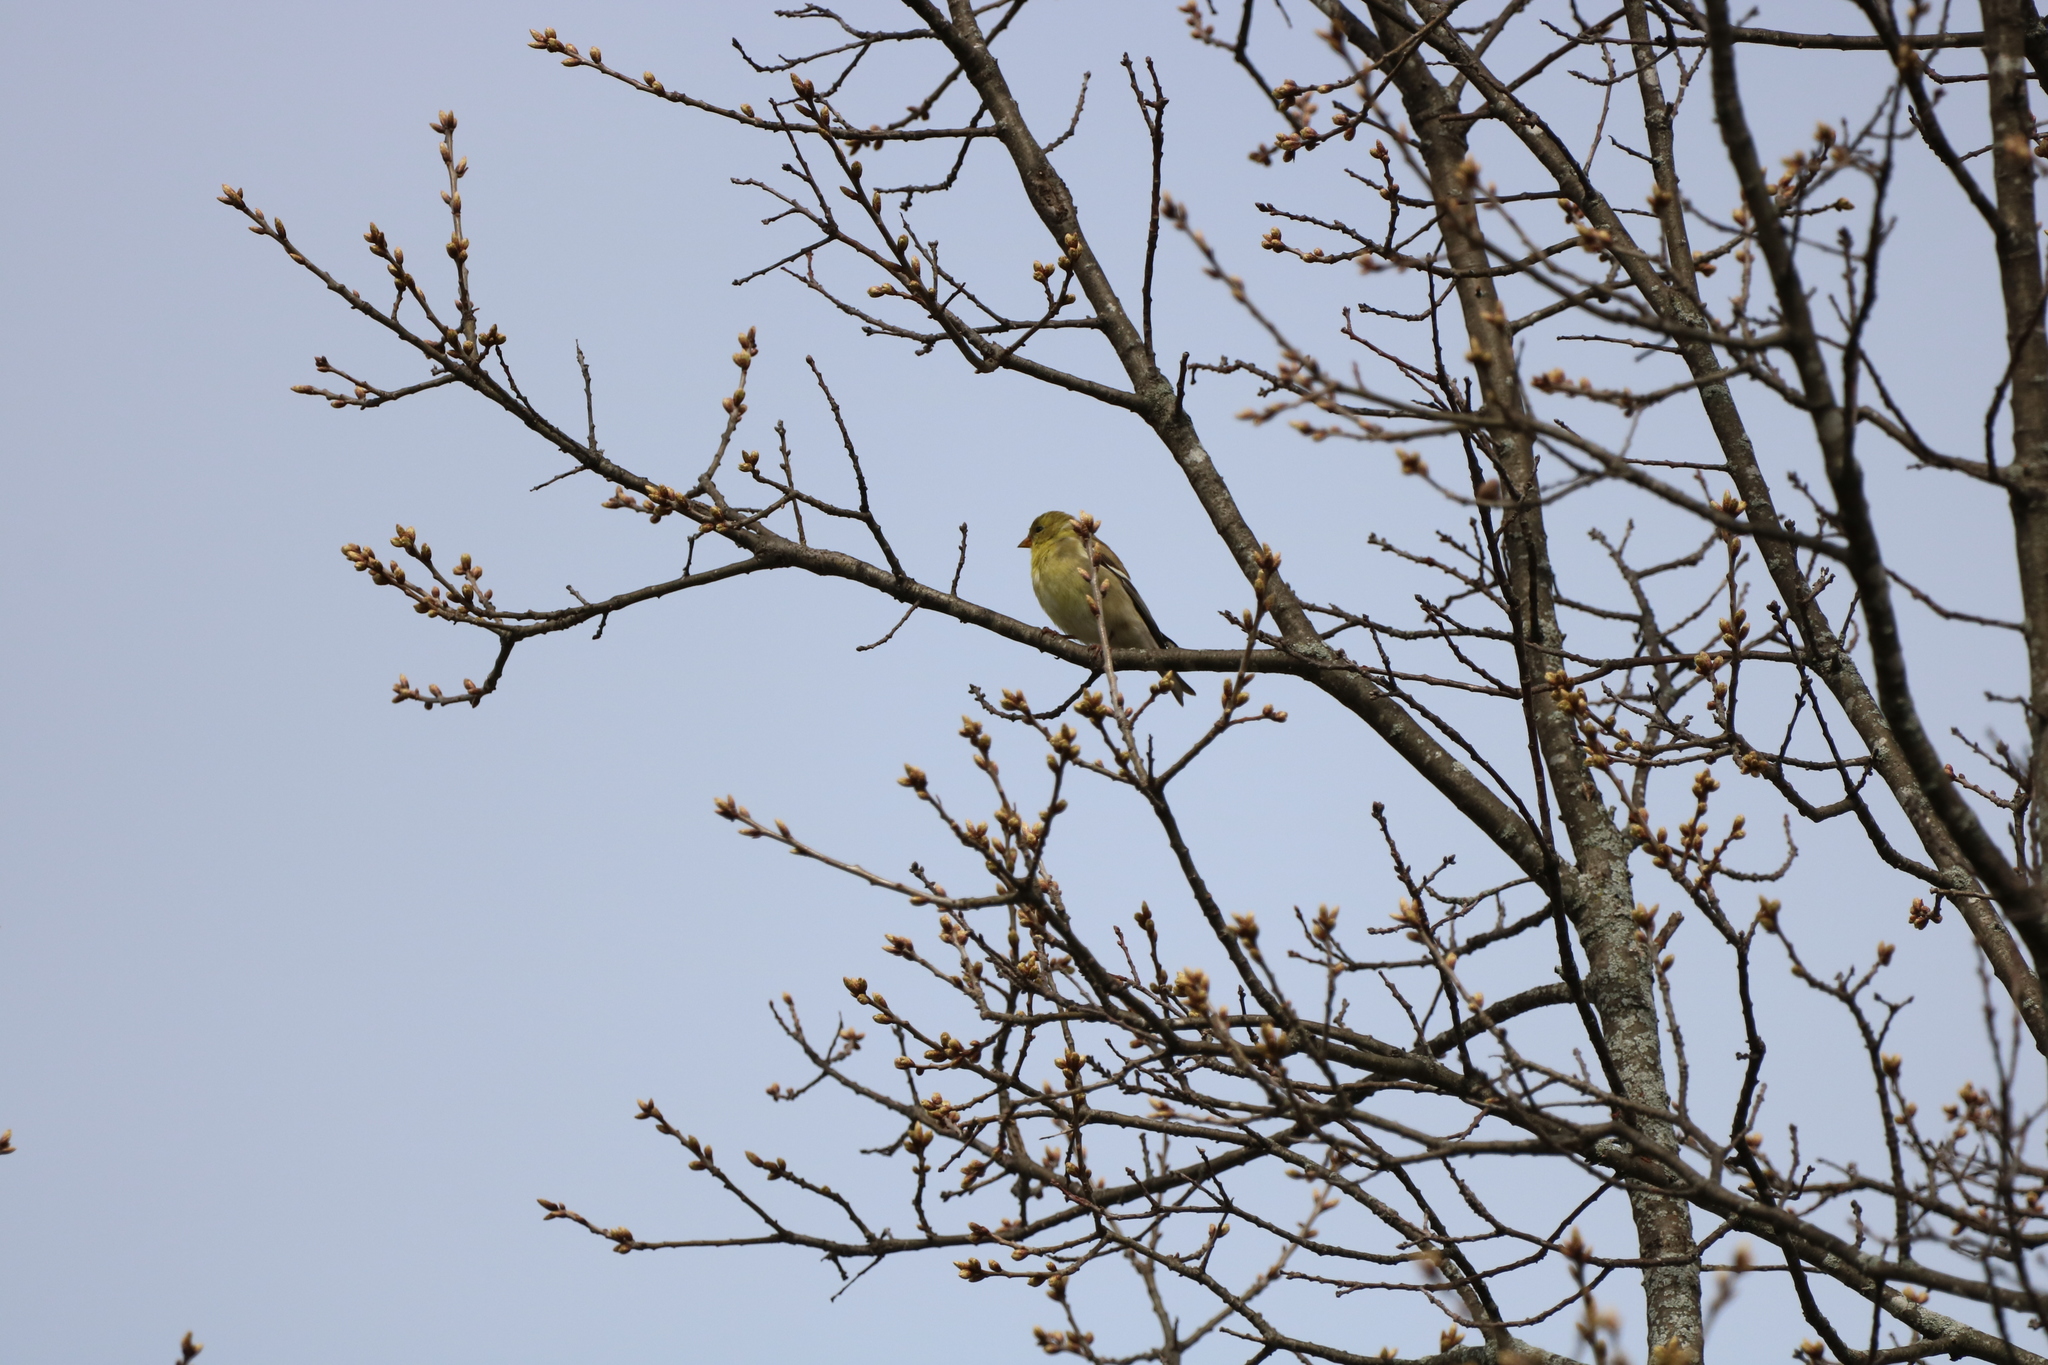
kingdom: Animalia
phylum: Chordata
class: Aves
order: Passeriformes
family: Fringillidae
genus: Spinus
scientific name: Spinus tristis
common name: American goldfinch
